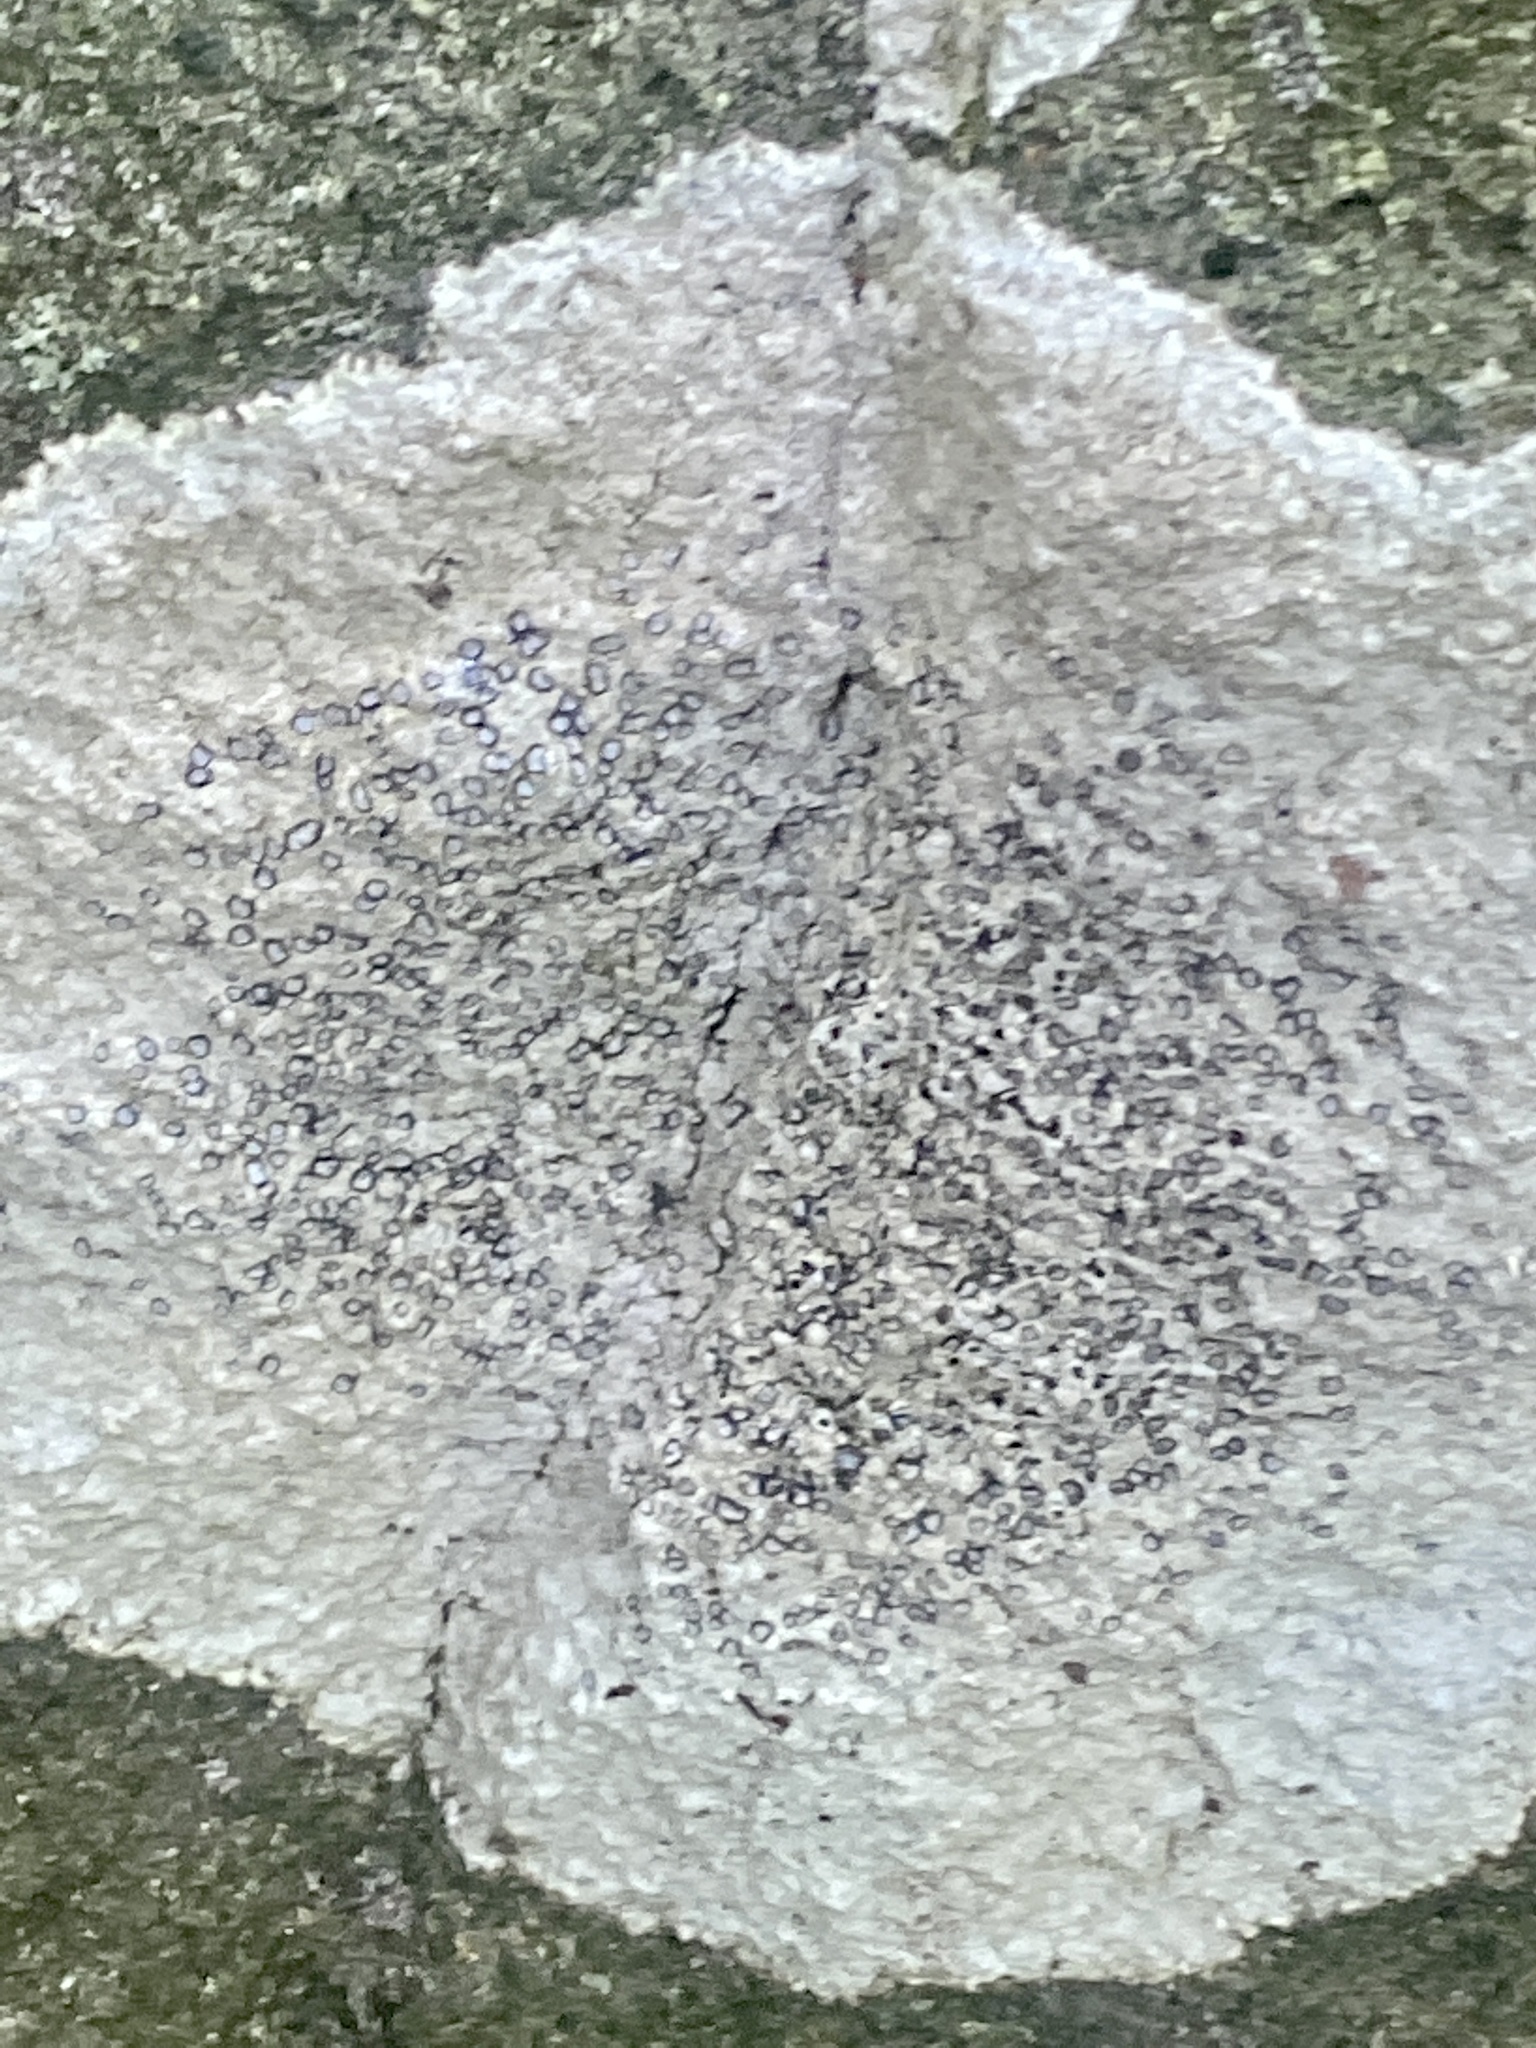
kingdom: Fungi
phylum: Ascomycota
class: Lecanoromycetes
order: Lecideales
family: Lecideaceae
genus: Porpidia
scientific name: Porpidia albocaerulescens
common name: Smokey-eyed boulder lichen
